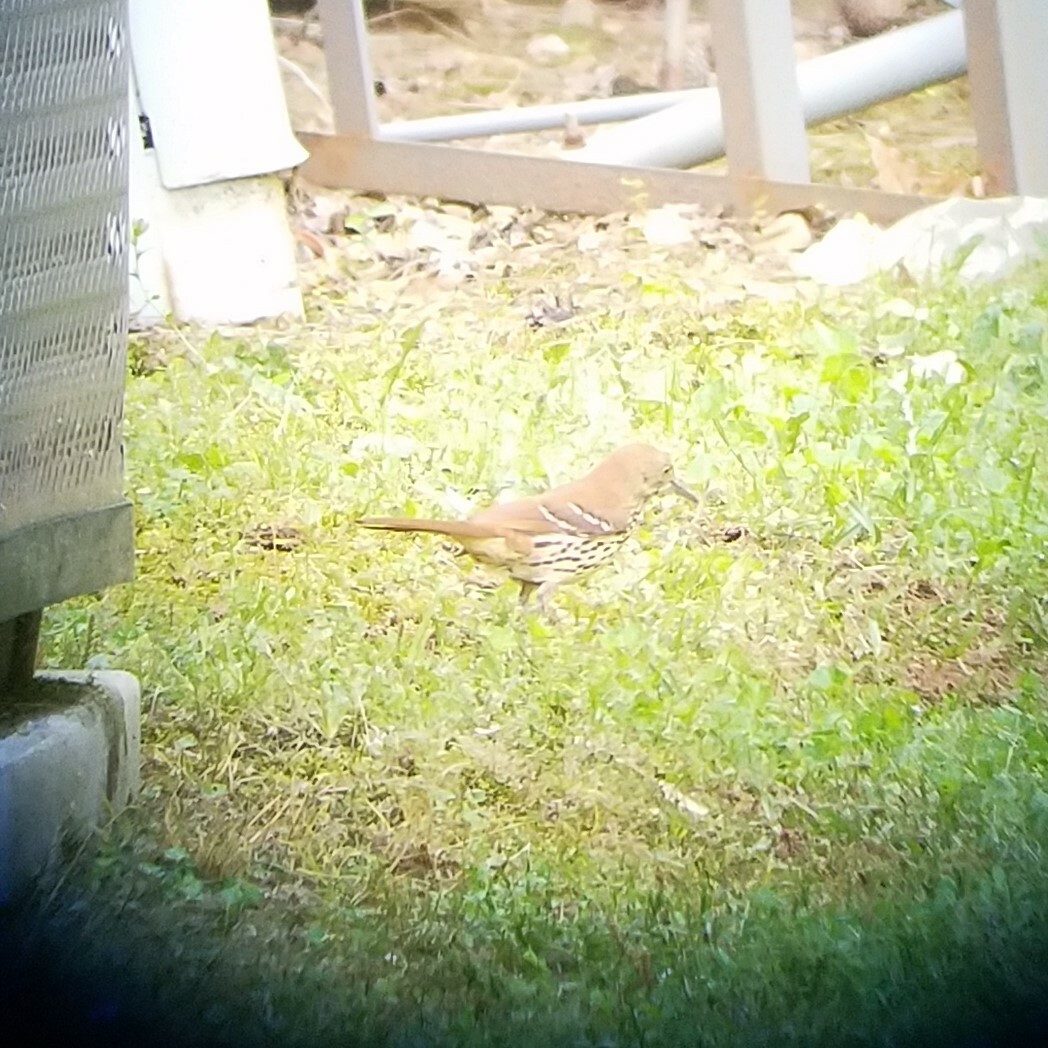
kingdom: Animalia
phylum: Chordata
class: Aves
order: Passeriformes
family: Mimidae
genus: Toxostoma
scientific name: Toxostoma rufum
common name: Brown thrasher
